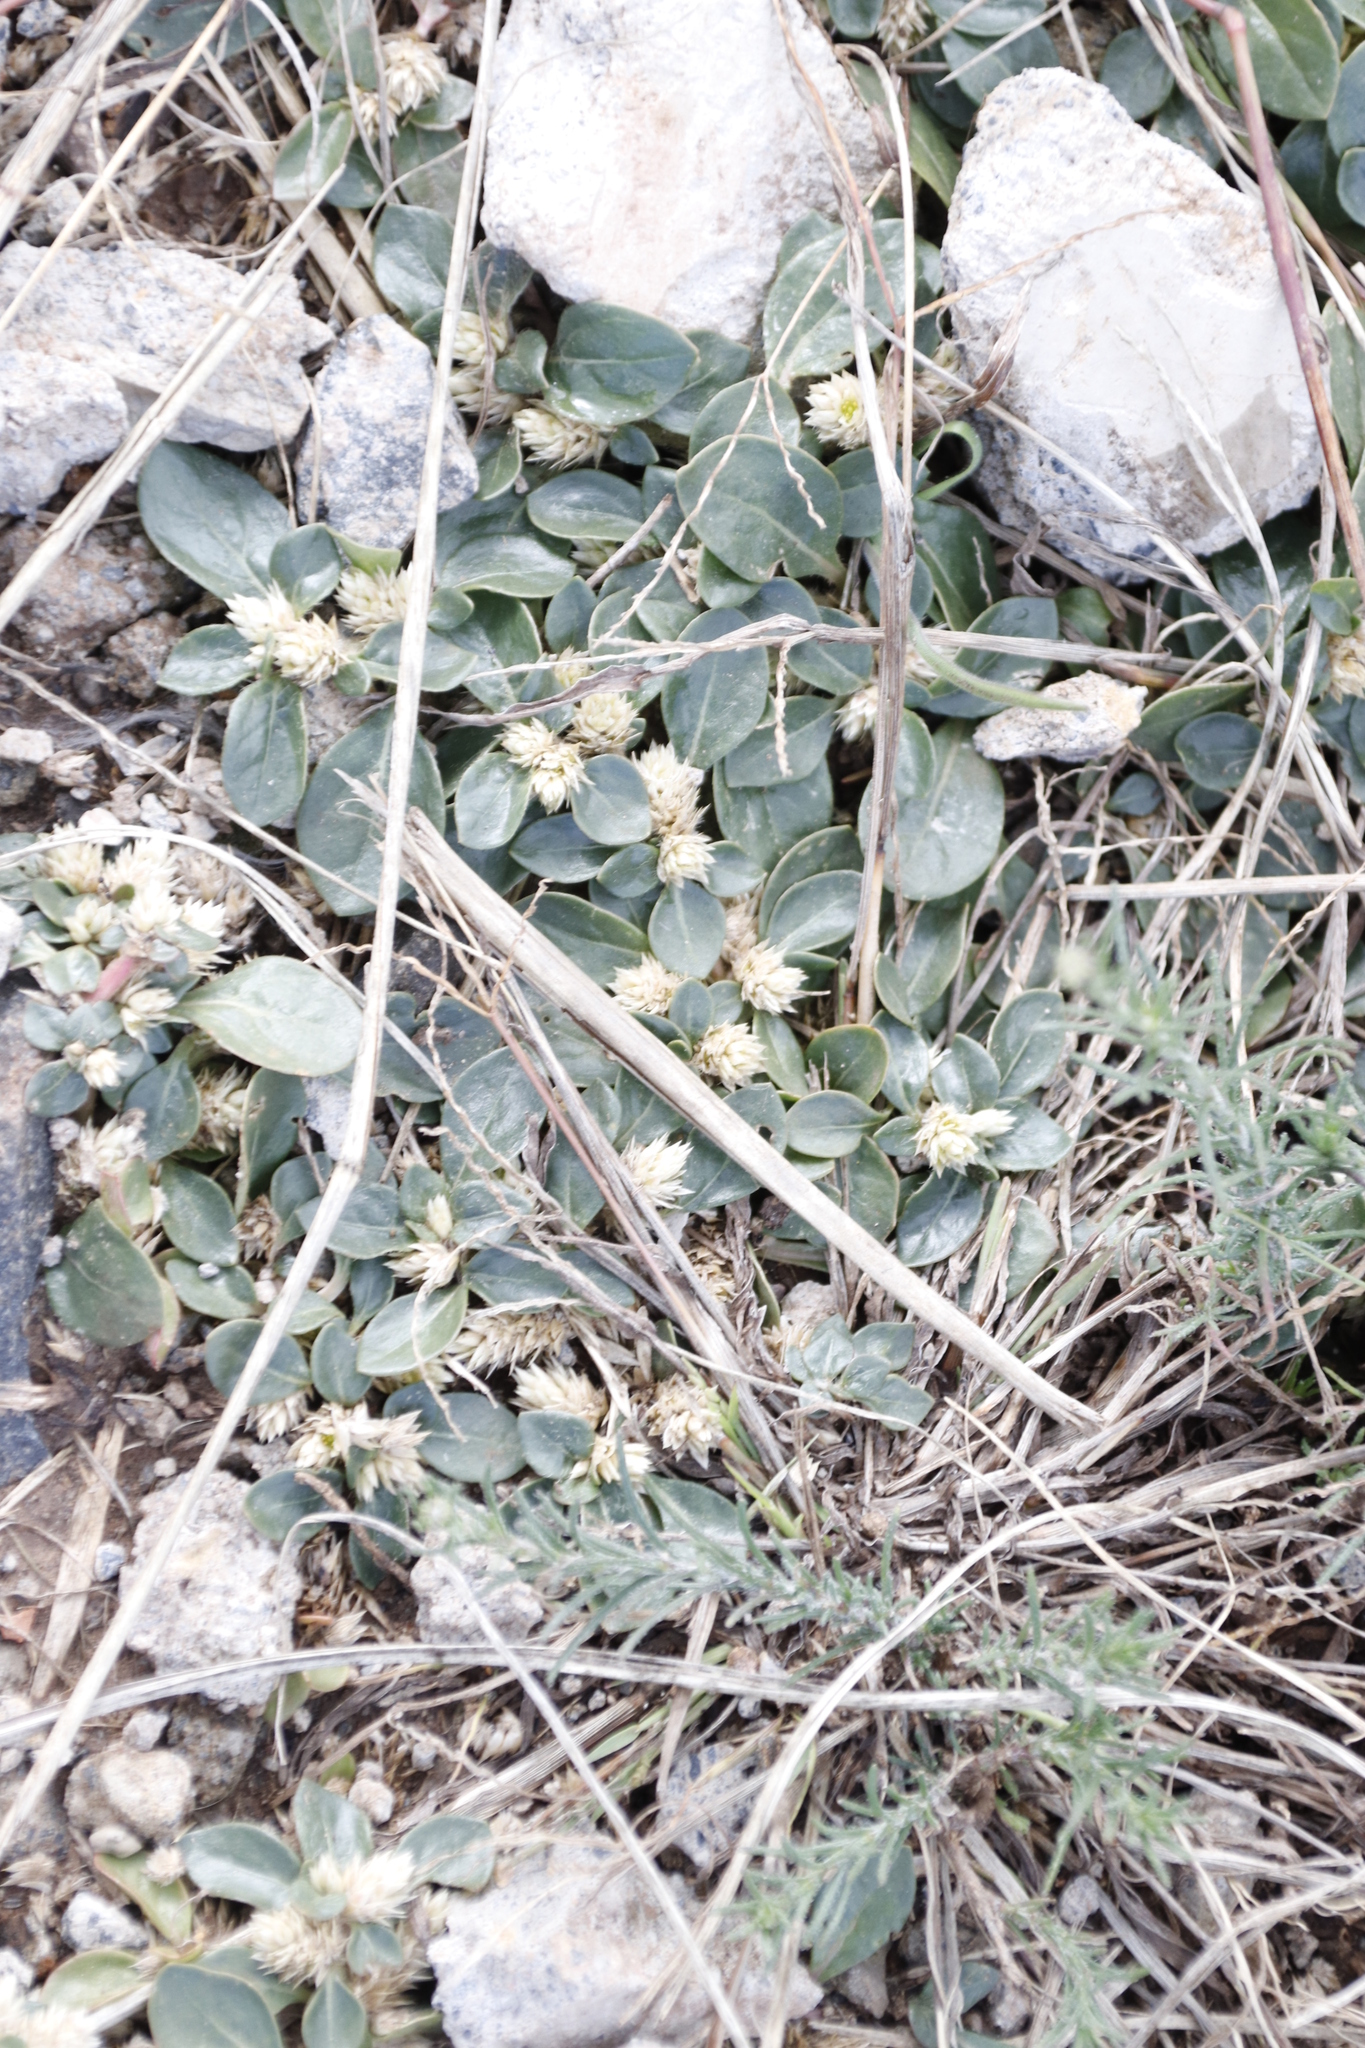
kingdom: Plantae
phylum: Tracheophyta
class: Magnoliopsida
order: Caryophyllales
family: Amaranthaceae
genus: Alternanthera
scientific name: Alternanthera pungens
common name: Khakiweed
